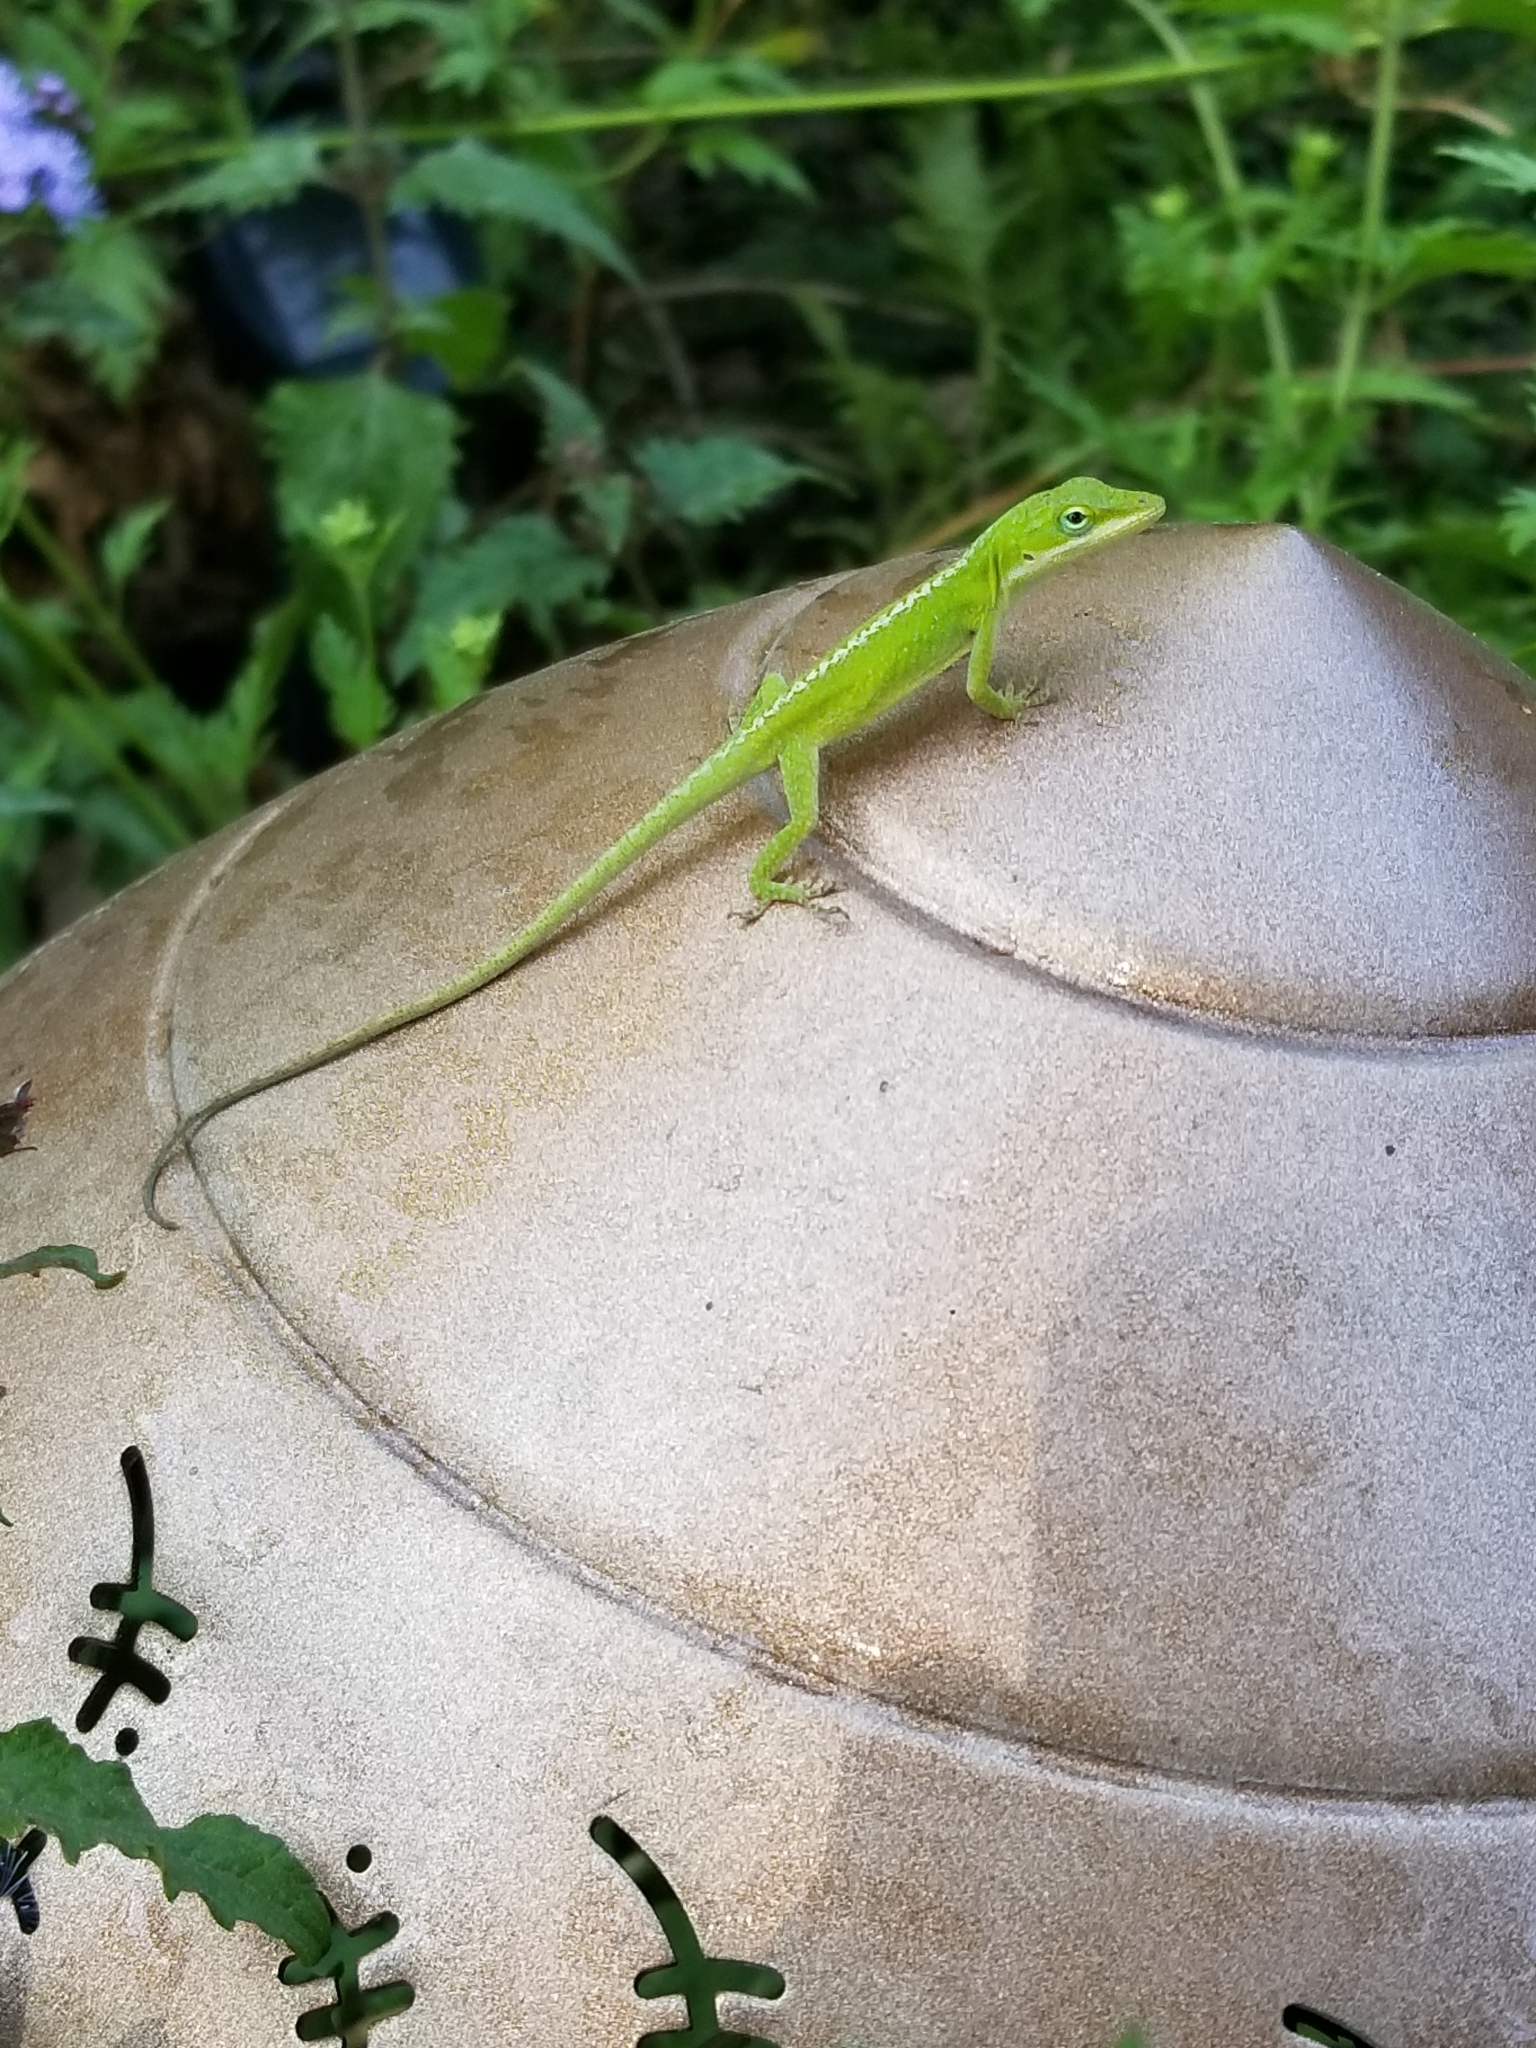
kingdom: Animalia
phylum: Chordata
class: Squamata
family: Dactyloidae
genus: Anolis
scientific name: Anolis carolinensis
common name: Green anole
